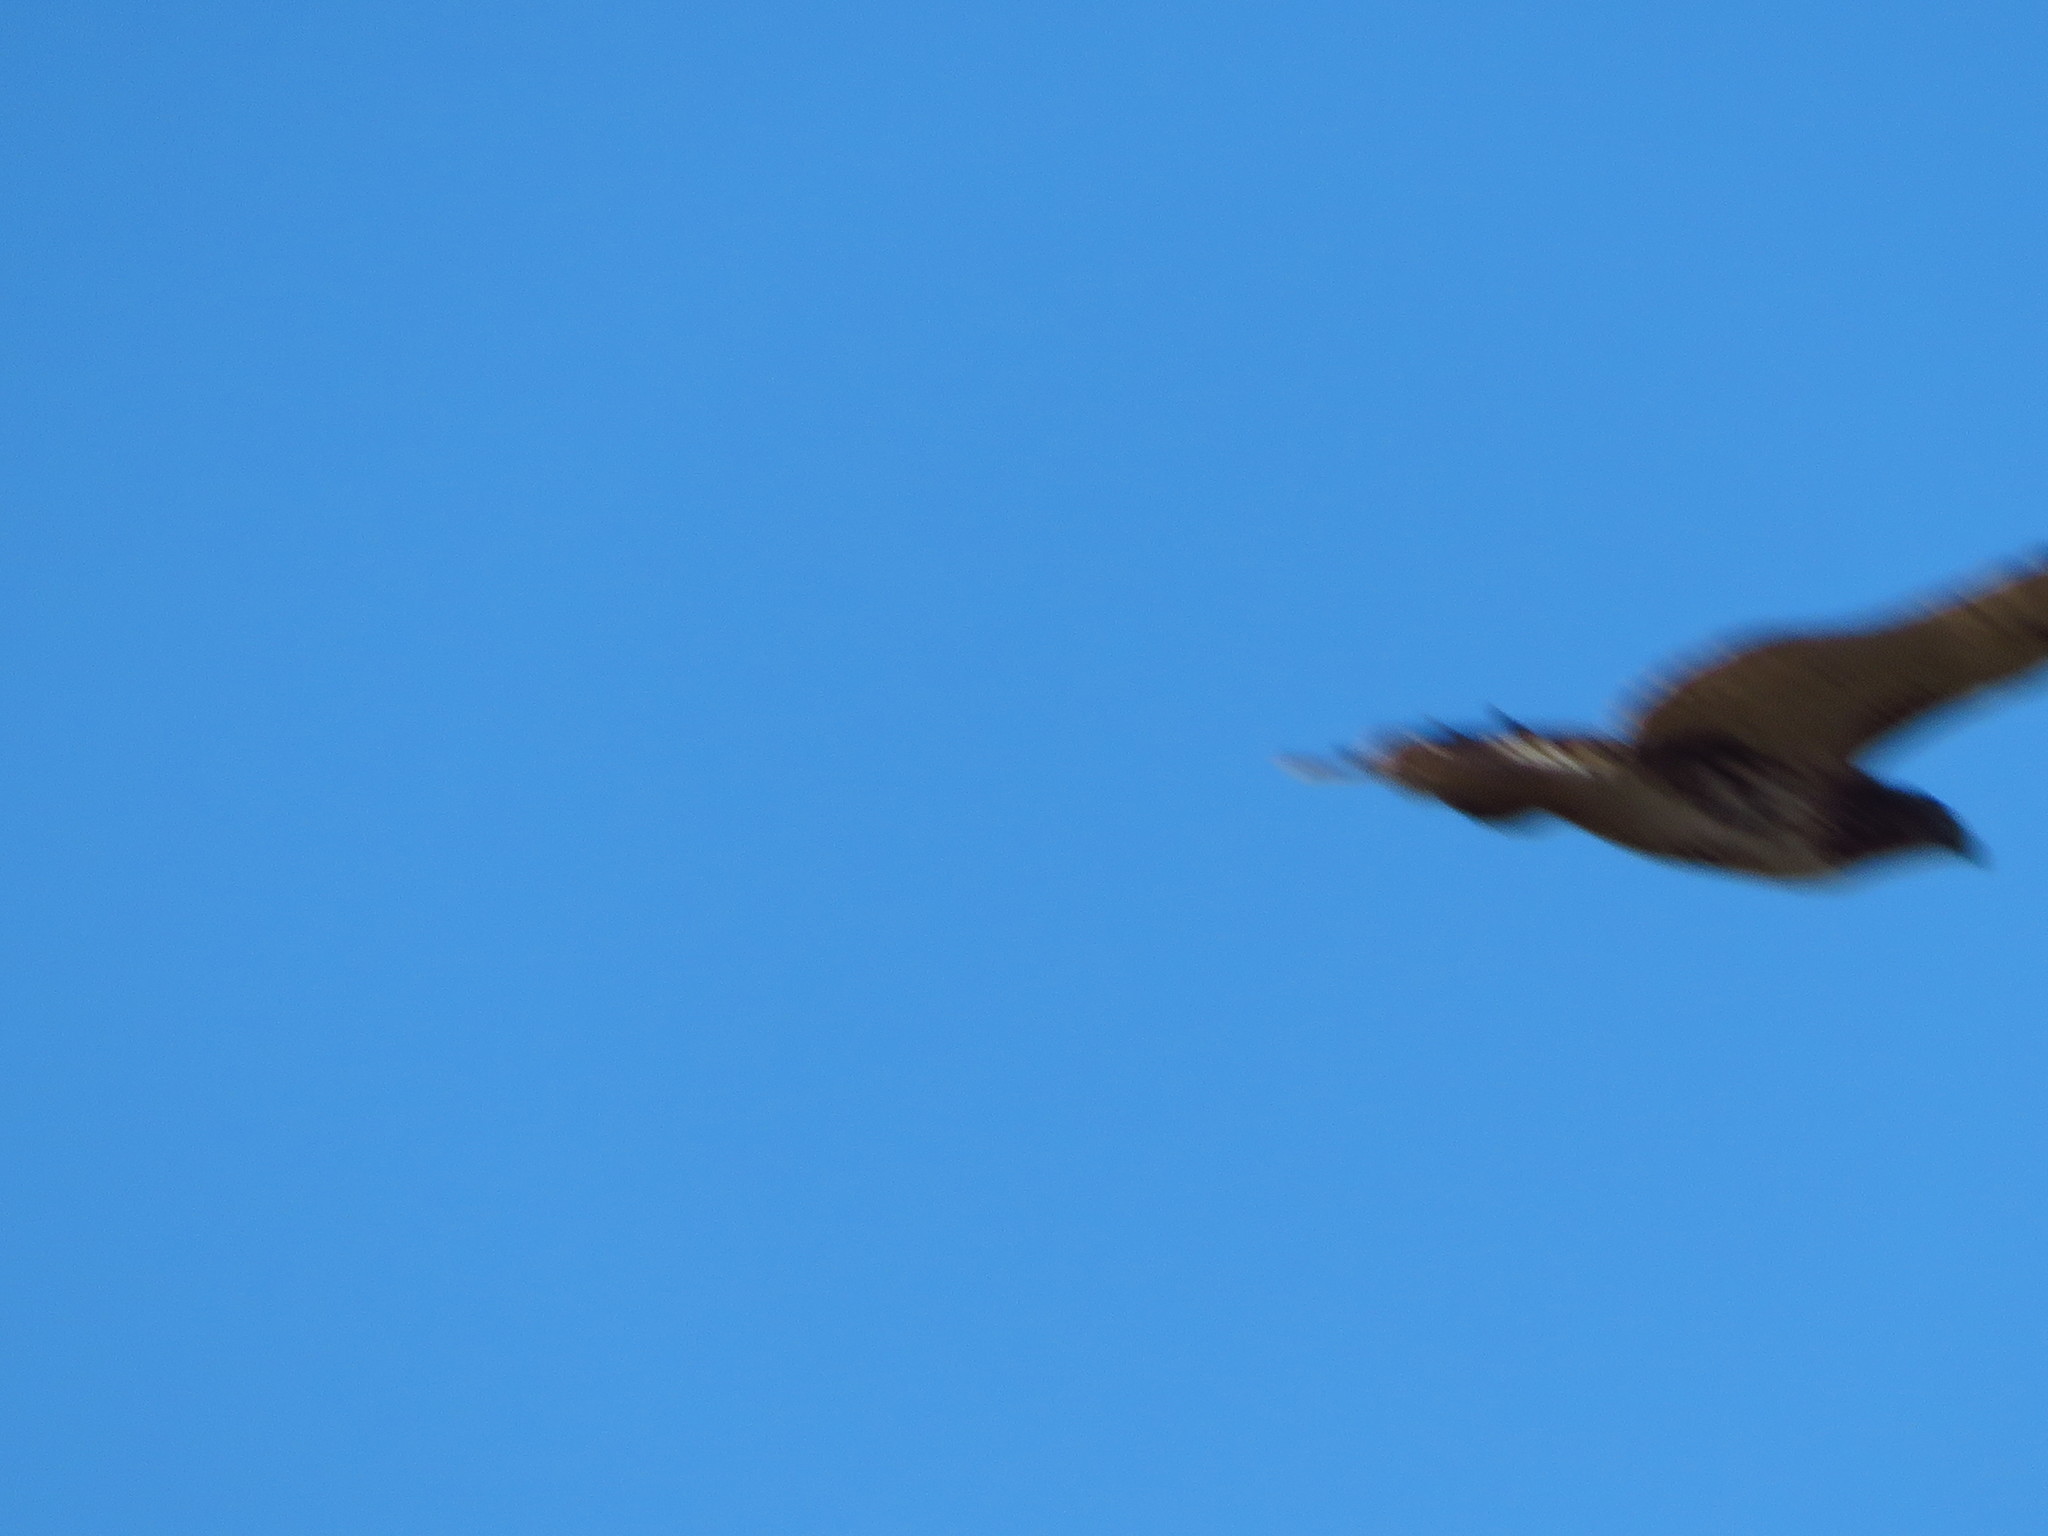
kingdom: Animalia
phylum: Chordata
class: Aves
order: Accipitriformes
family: Accipitridae
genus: Buteo
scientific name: Buteo jamaicensis
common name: Red-tailed hawk
